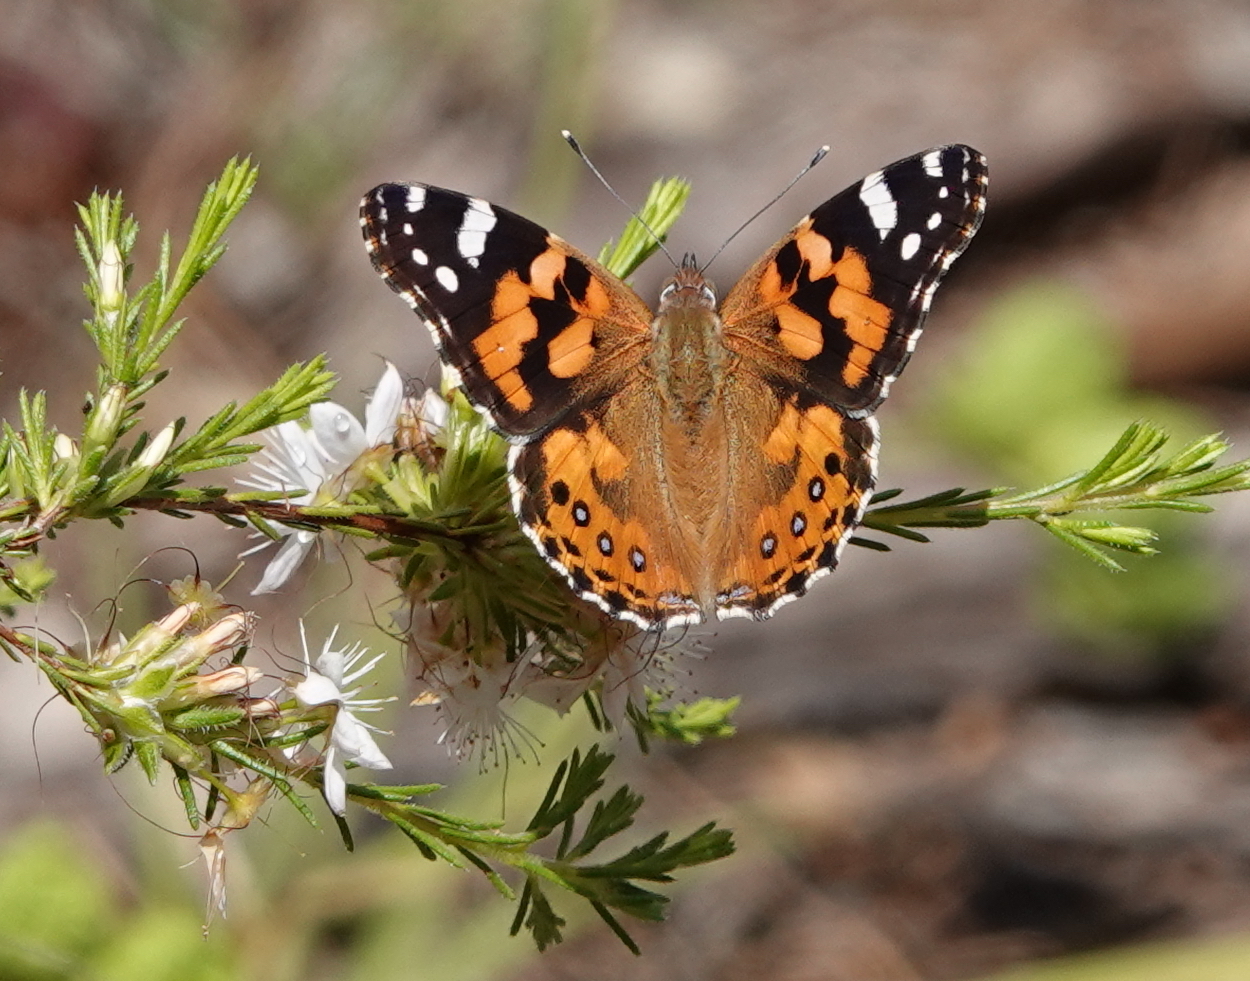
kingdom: Animalia
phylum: Arthropoda
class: Insecta
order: Lepidoptera
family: Nymphalidae
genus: Vanessa
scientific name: Vanessa kershawi
